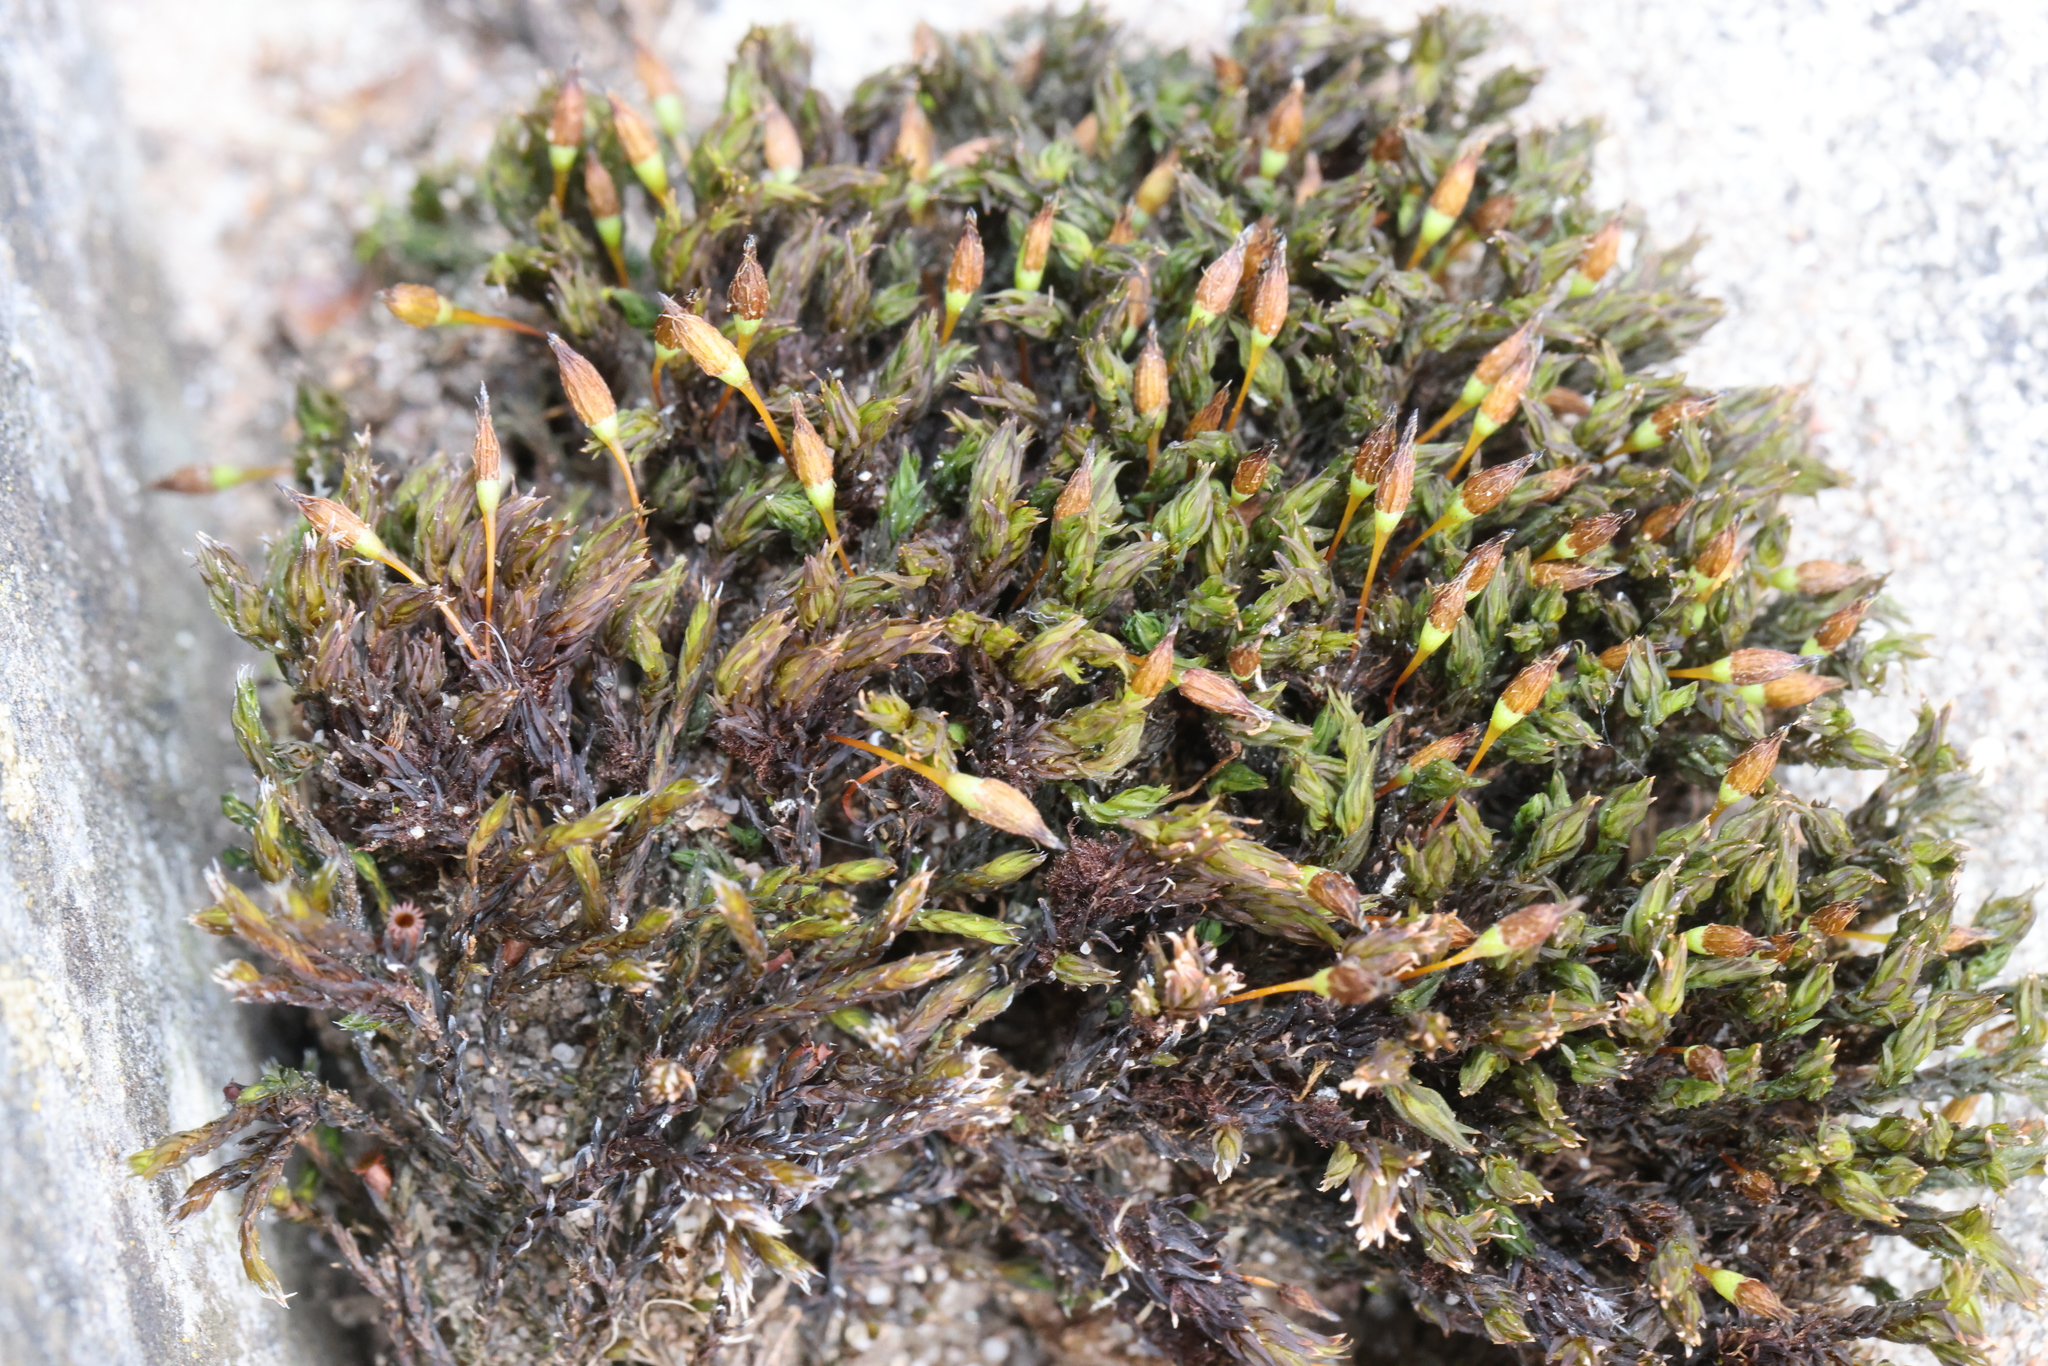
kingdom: Plantae
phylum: Bryophyta
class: Bryopsida
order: Orthotrichales
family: Orthotrichaceae
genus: Orthotrichum
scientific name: Orthotrichum anomalum
